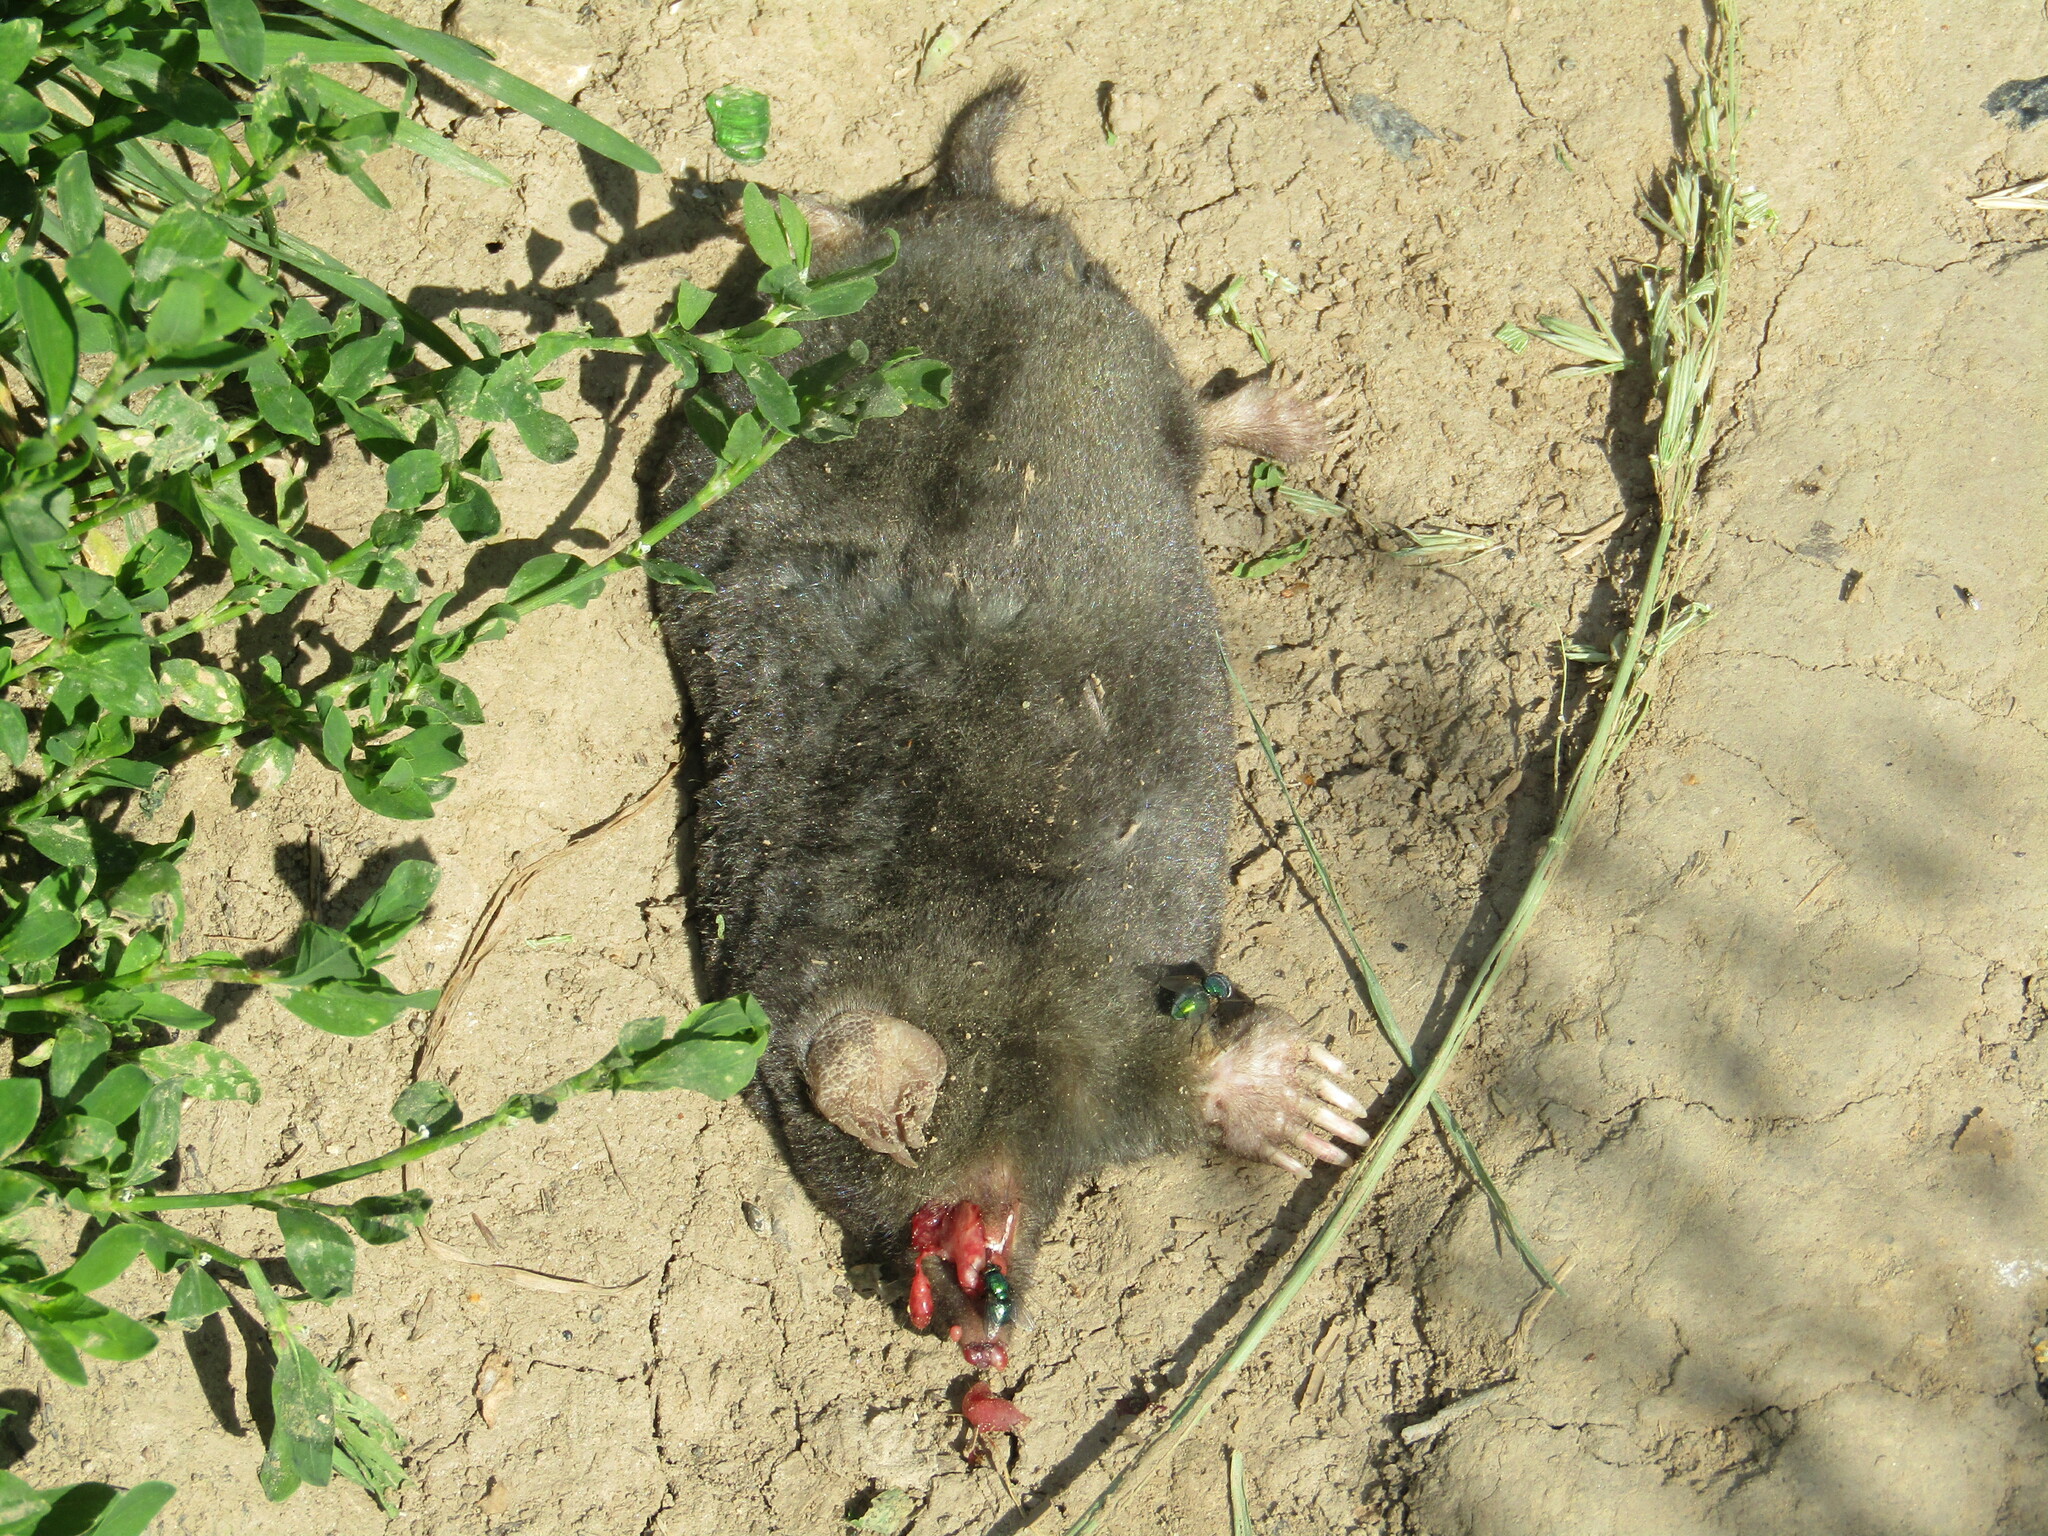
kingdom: Animalia
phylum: Chordata
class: Mammalia
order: Soricomorpha
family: Talpidae
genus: Talpa
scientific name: Talpa europaea
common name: European mole
